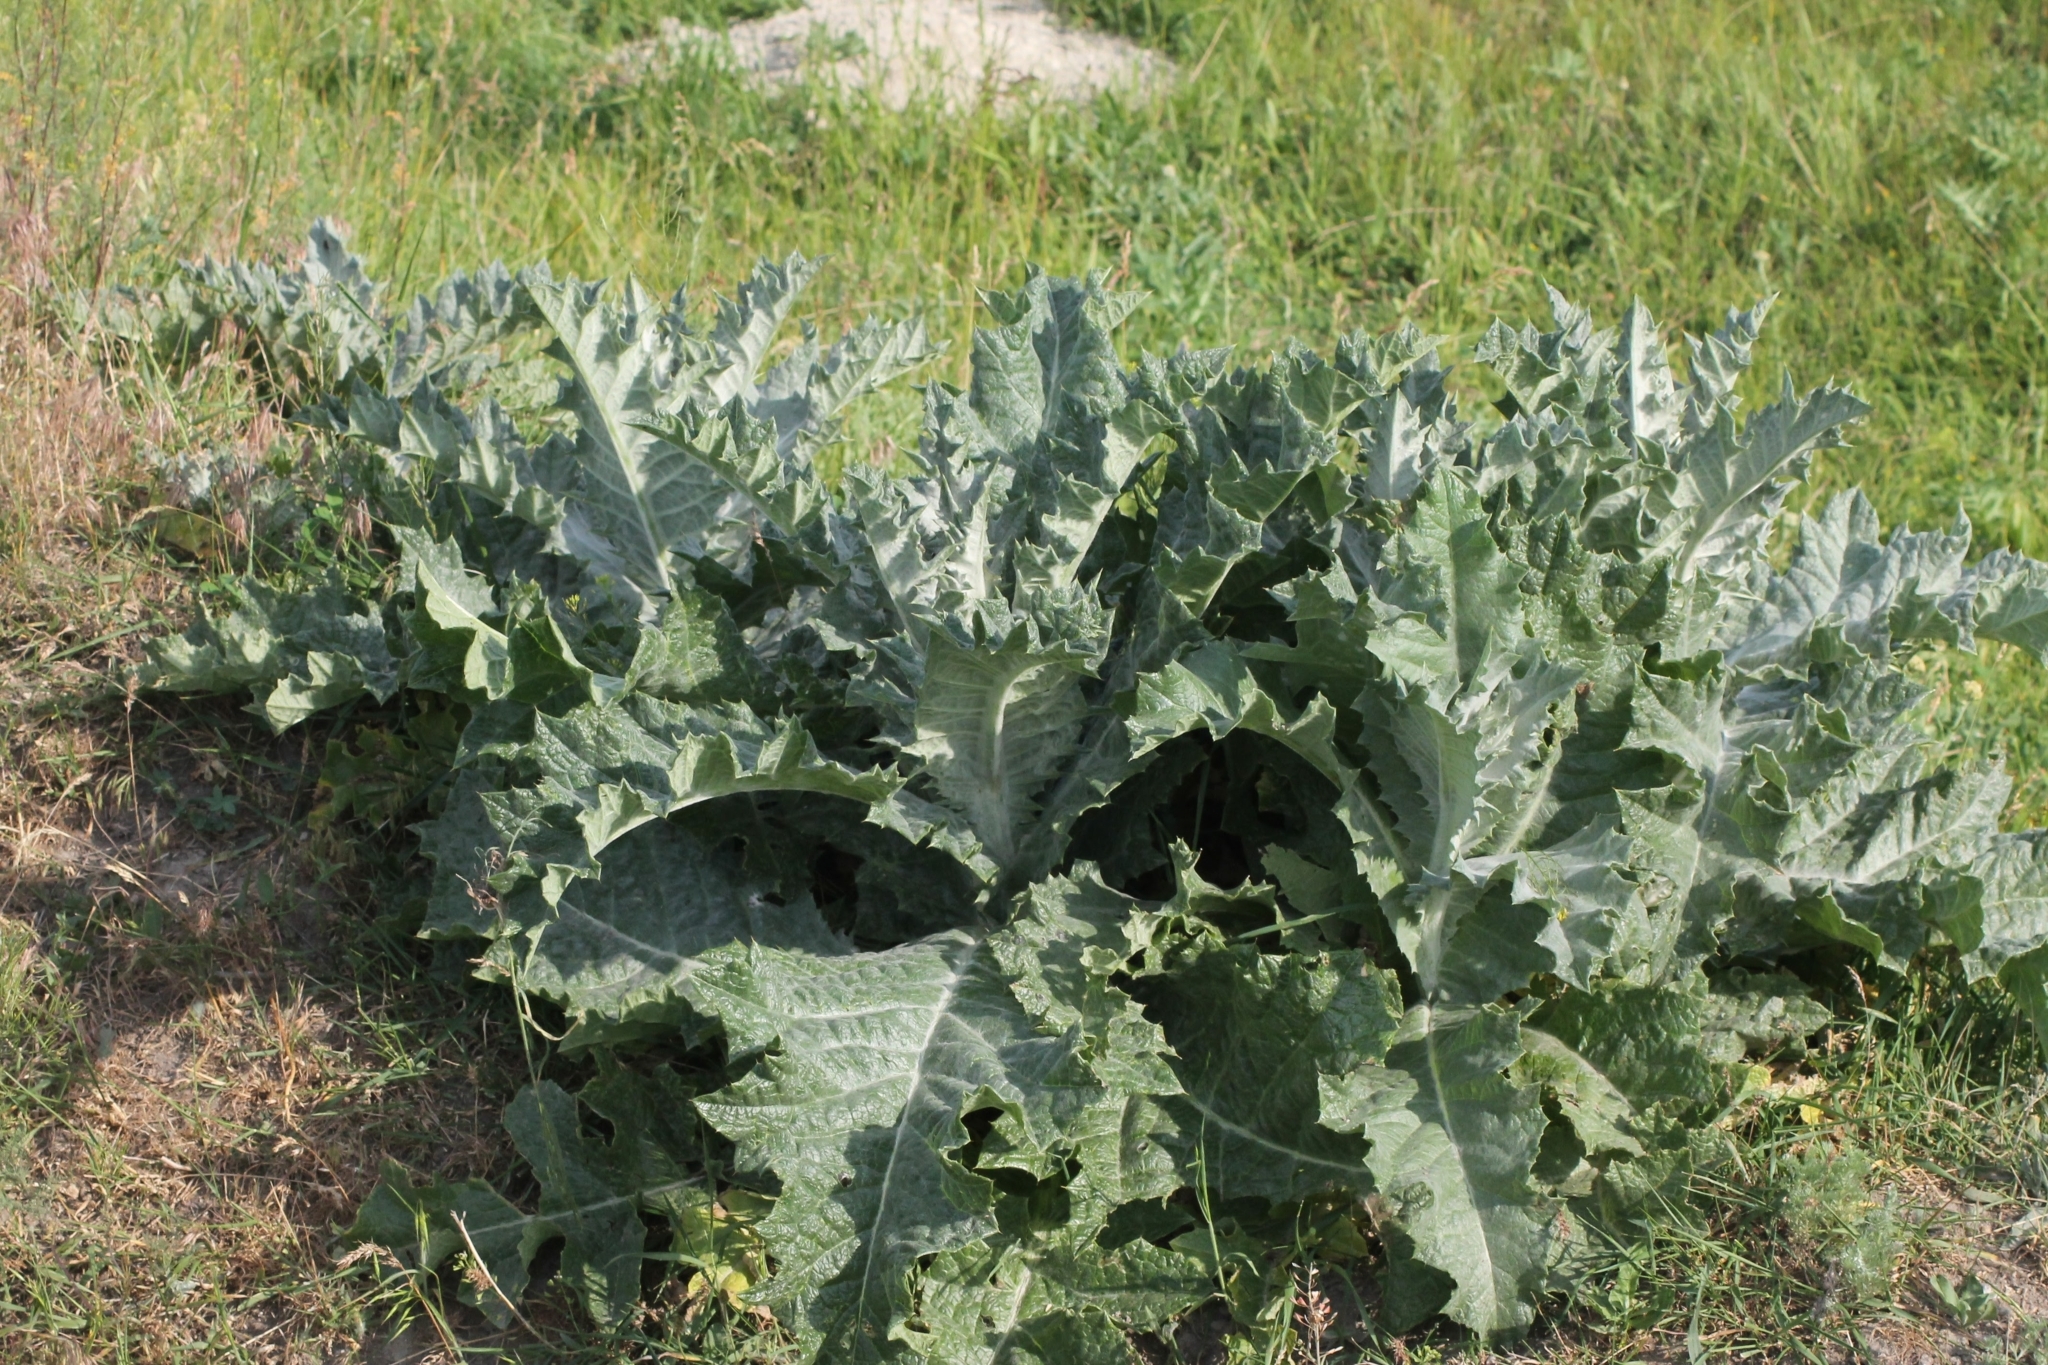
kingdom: Plantae
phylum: Tracheophyta
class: Magnoliopsida
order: Asterales
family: Asteraceae
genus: Onopordum
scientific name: Onopordum acanthium
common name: Scotch thistle
